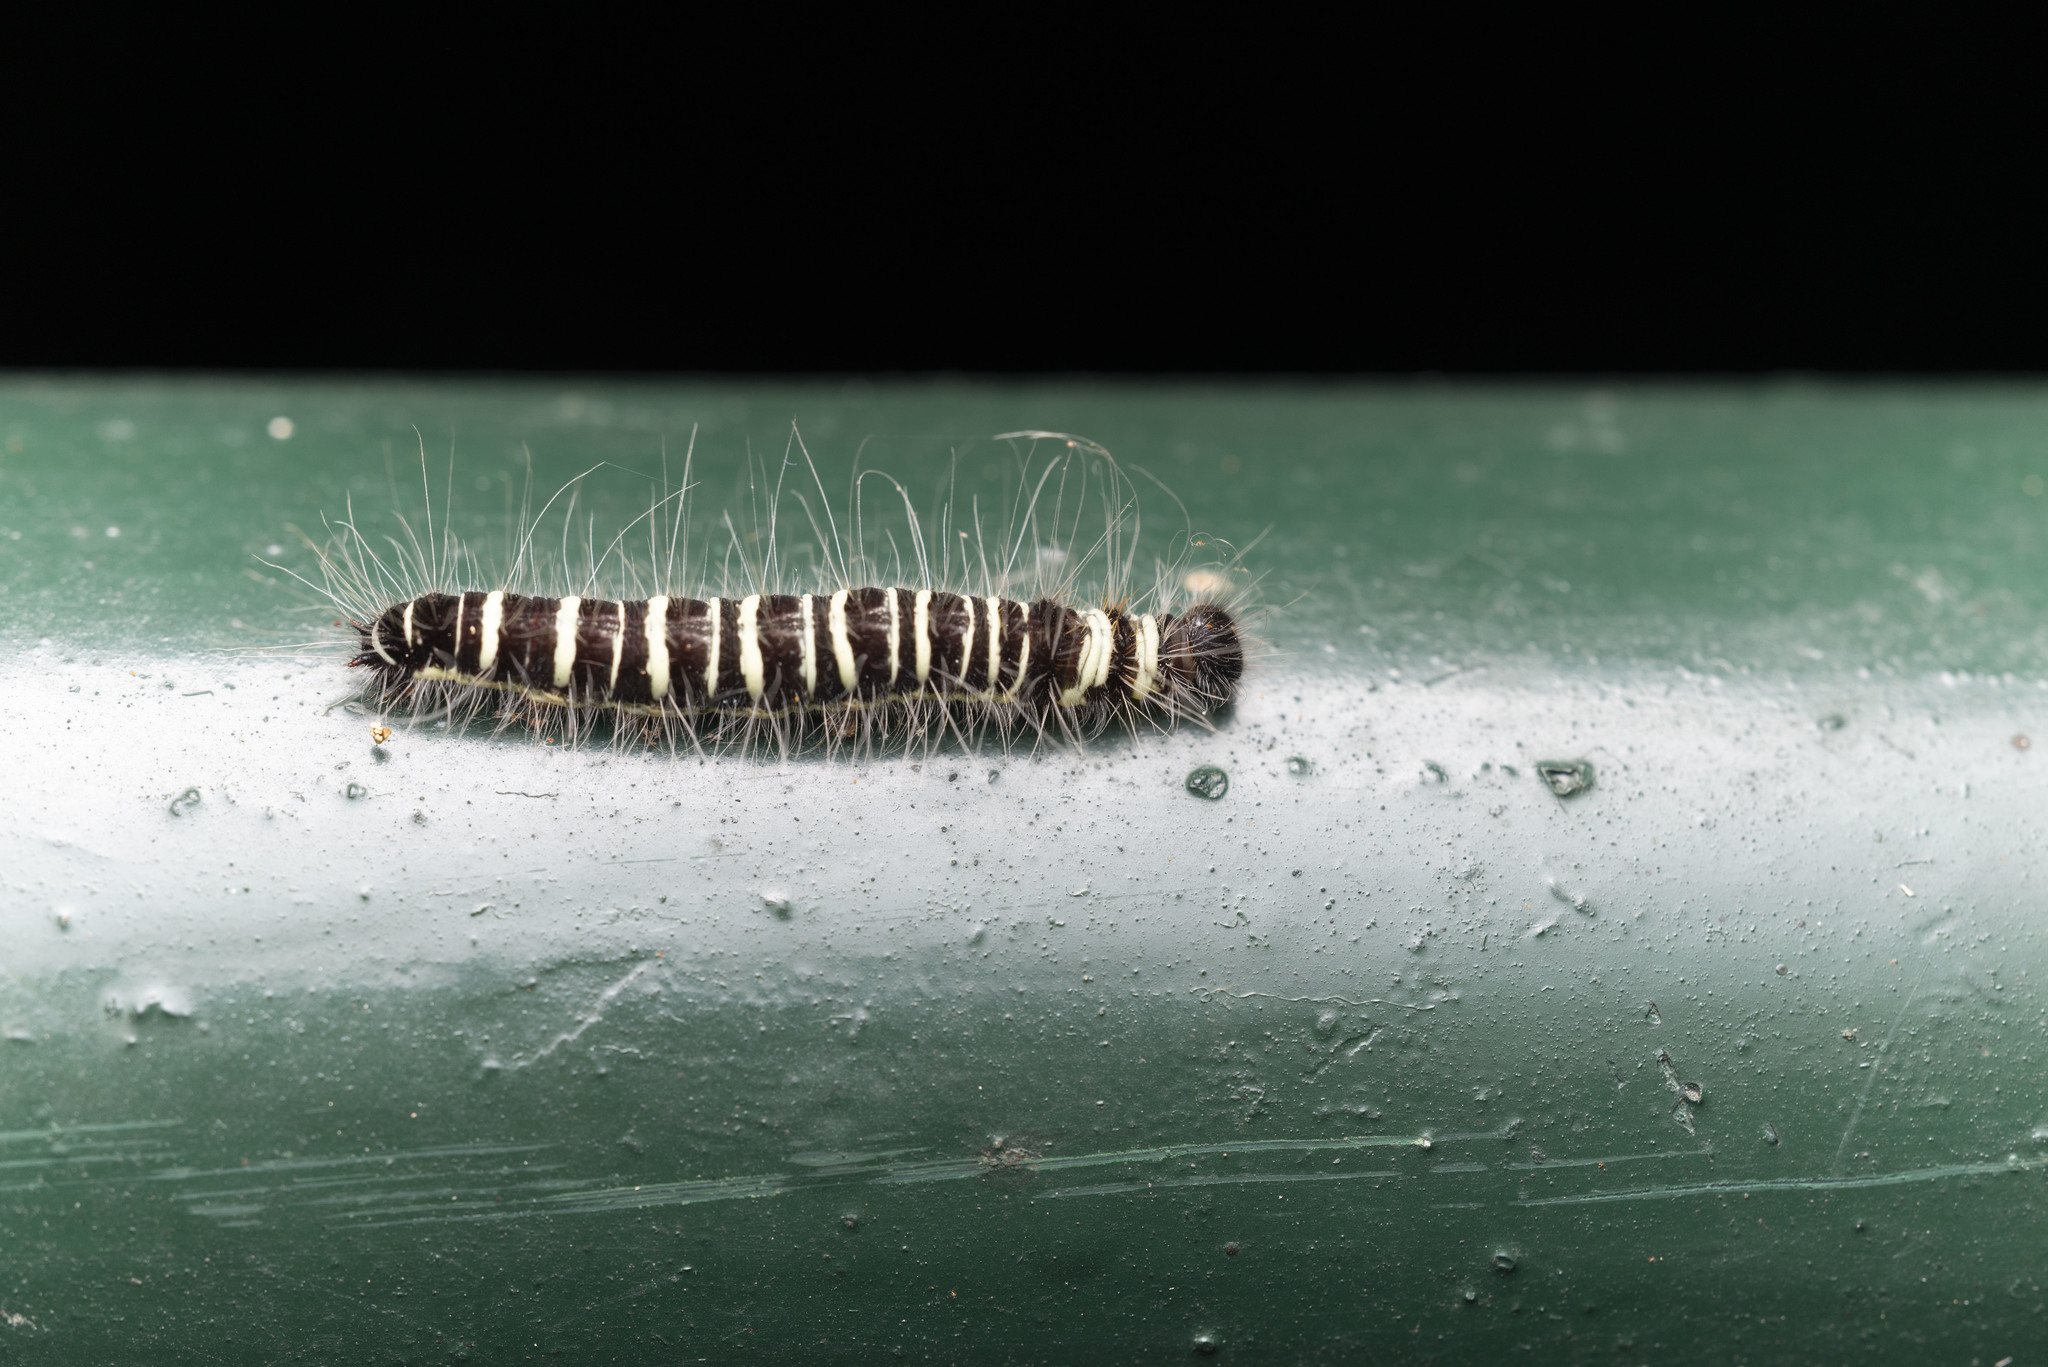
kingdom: Animalia
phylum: Arthropoda
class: Insecta
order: Lepidoptera
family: Nymphalidae
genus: Discophora
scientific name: Discophora sondaica
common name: Common duffer
